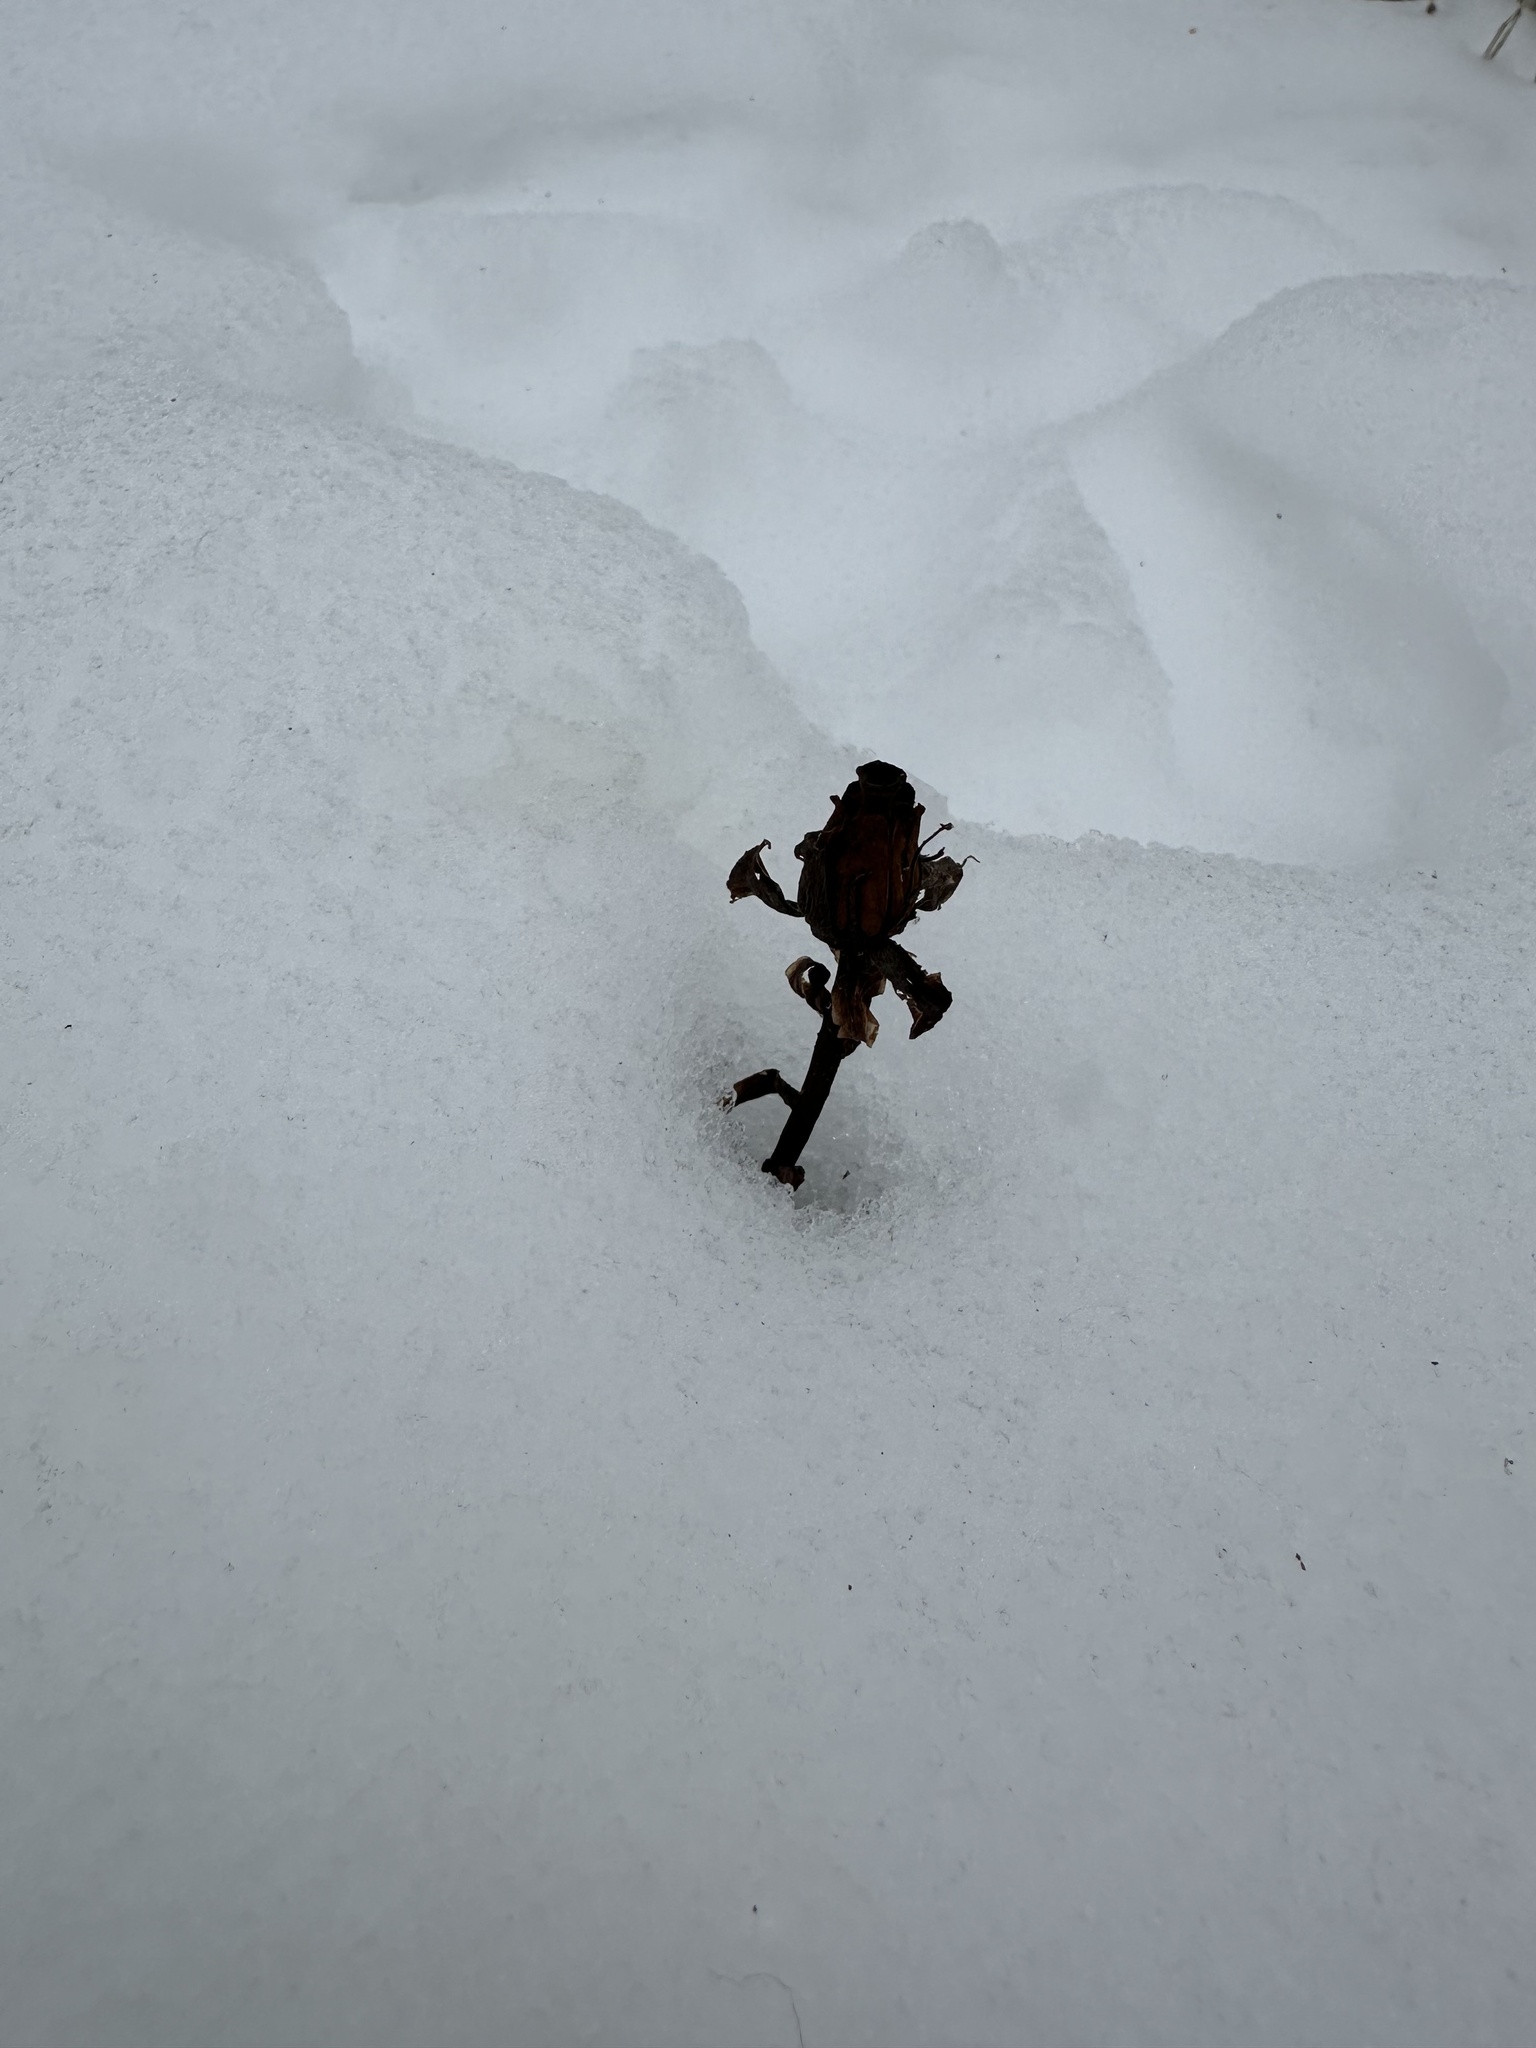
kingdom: Plantae
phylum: Tracheophyta
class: Magnoliopsida
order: Ericales
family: Ericaceae
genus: Monotropa
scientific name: Monotropa uniflora
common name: Convulsion root
